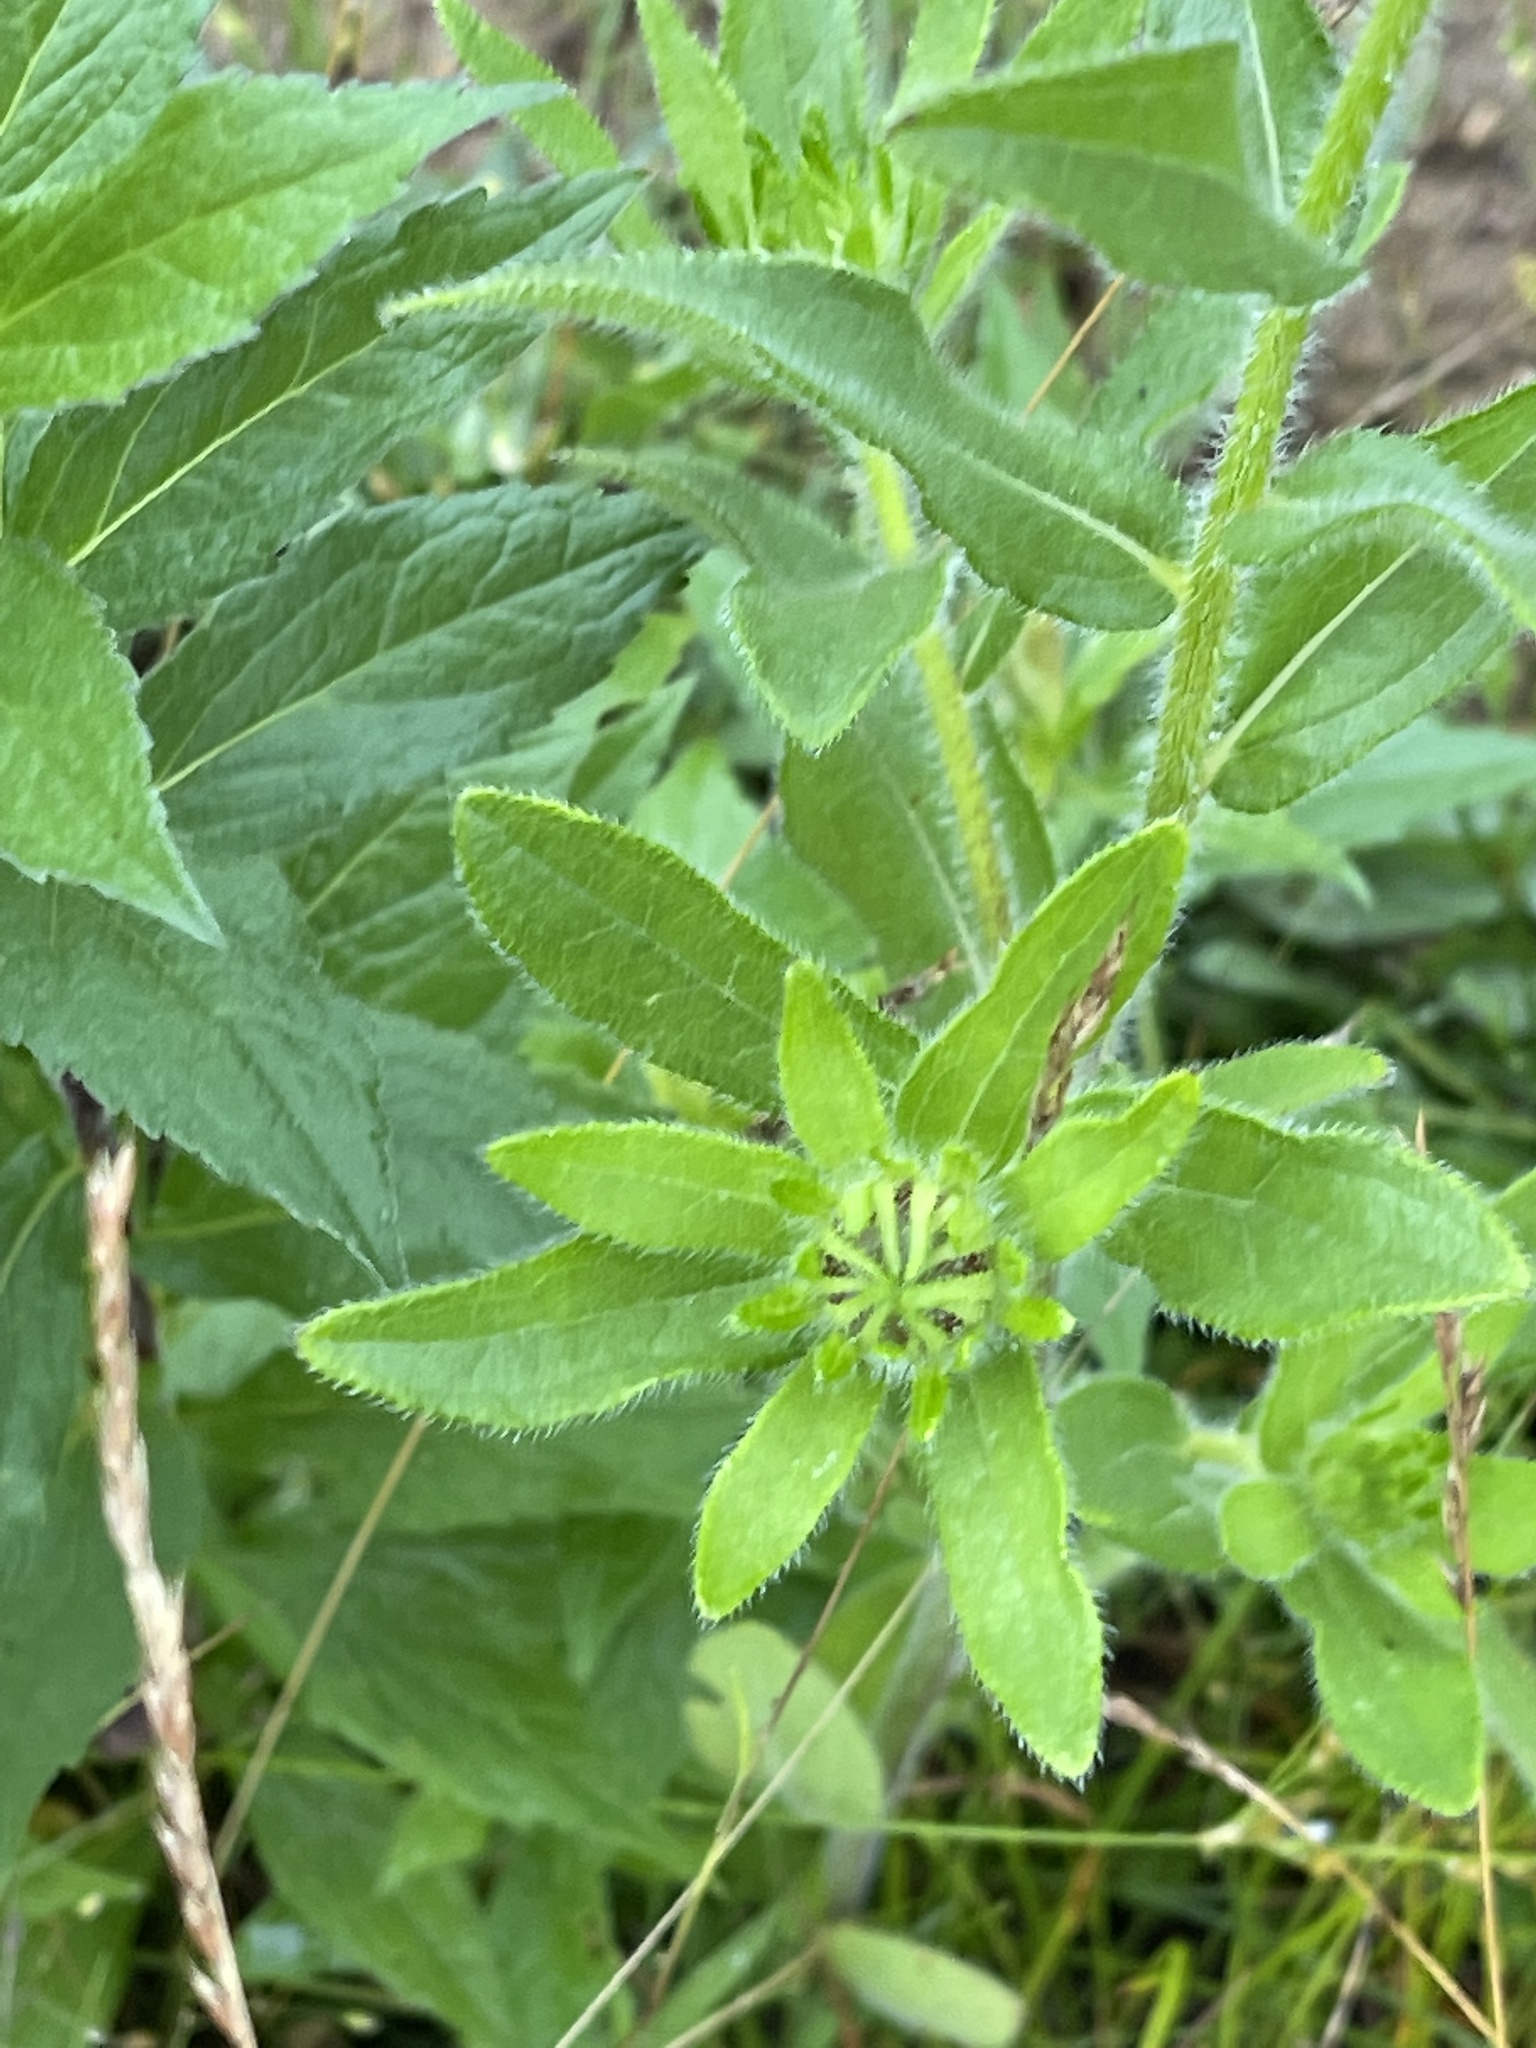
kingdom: Plantae
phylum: Tracheophyta
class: Magnoliopsida
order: Asterales
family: Asteraceae
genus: Rudbeckia
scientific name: Rudbeckia hirta
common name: Black-eyed-susan
